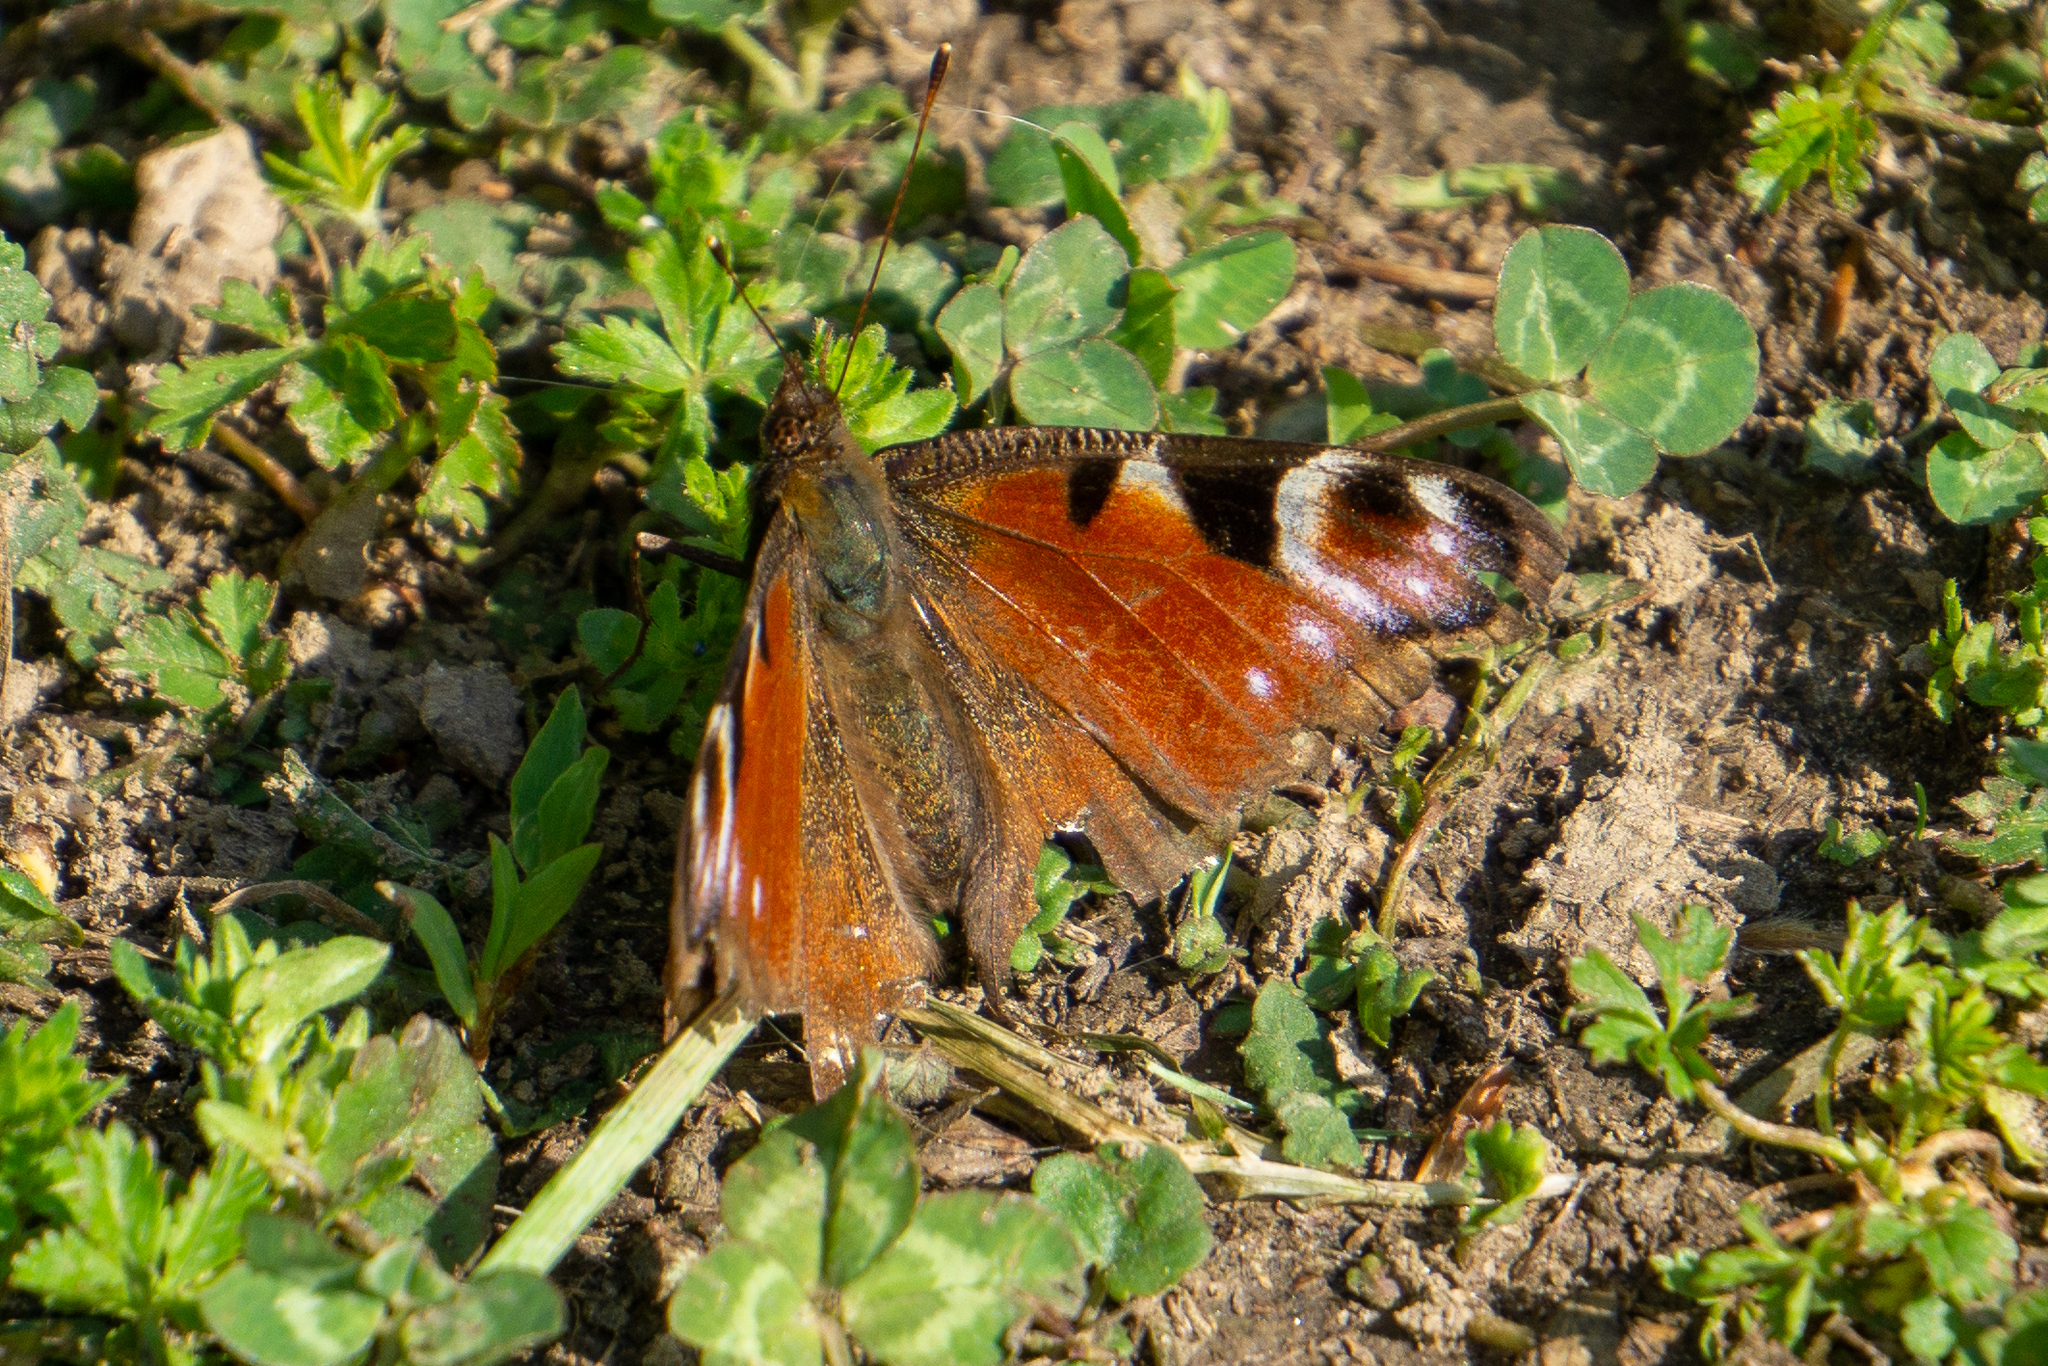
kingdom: Animalia
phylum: Arthropoda
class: Insecta
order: Lepidoptera
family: Nymphalidae
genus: Aglais
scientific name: Aglais io
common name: Peacock
